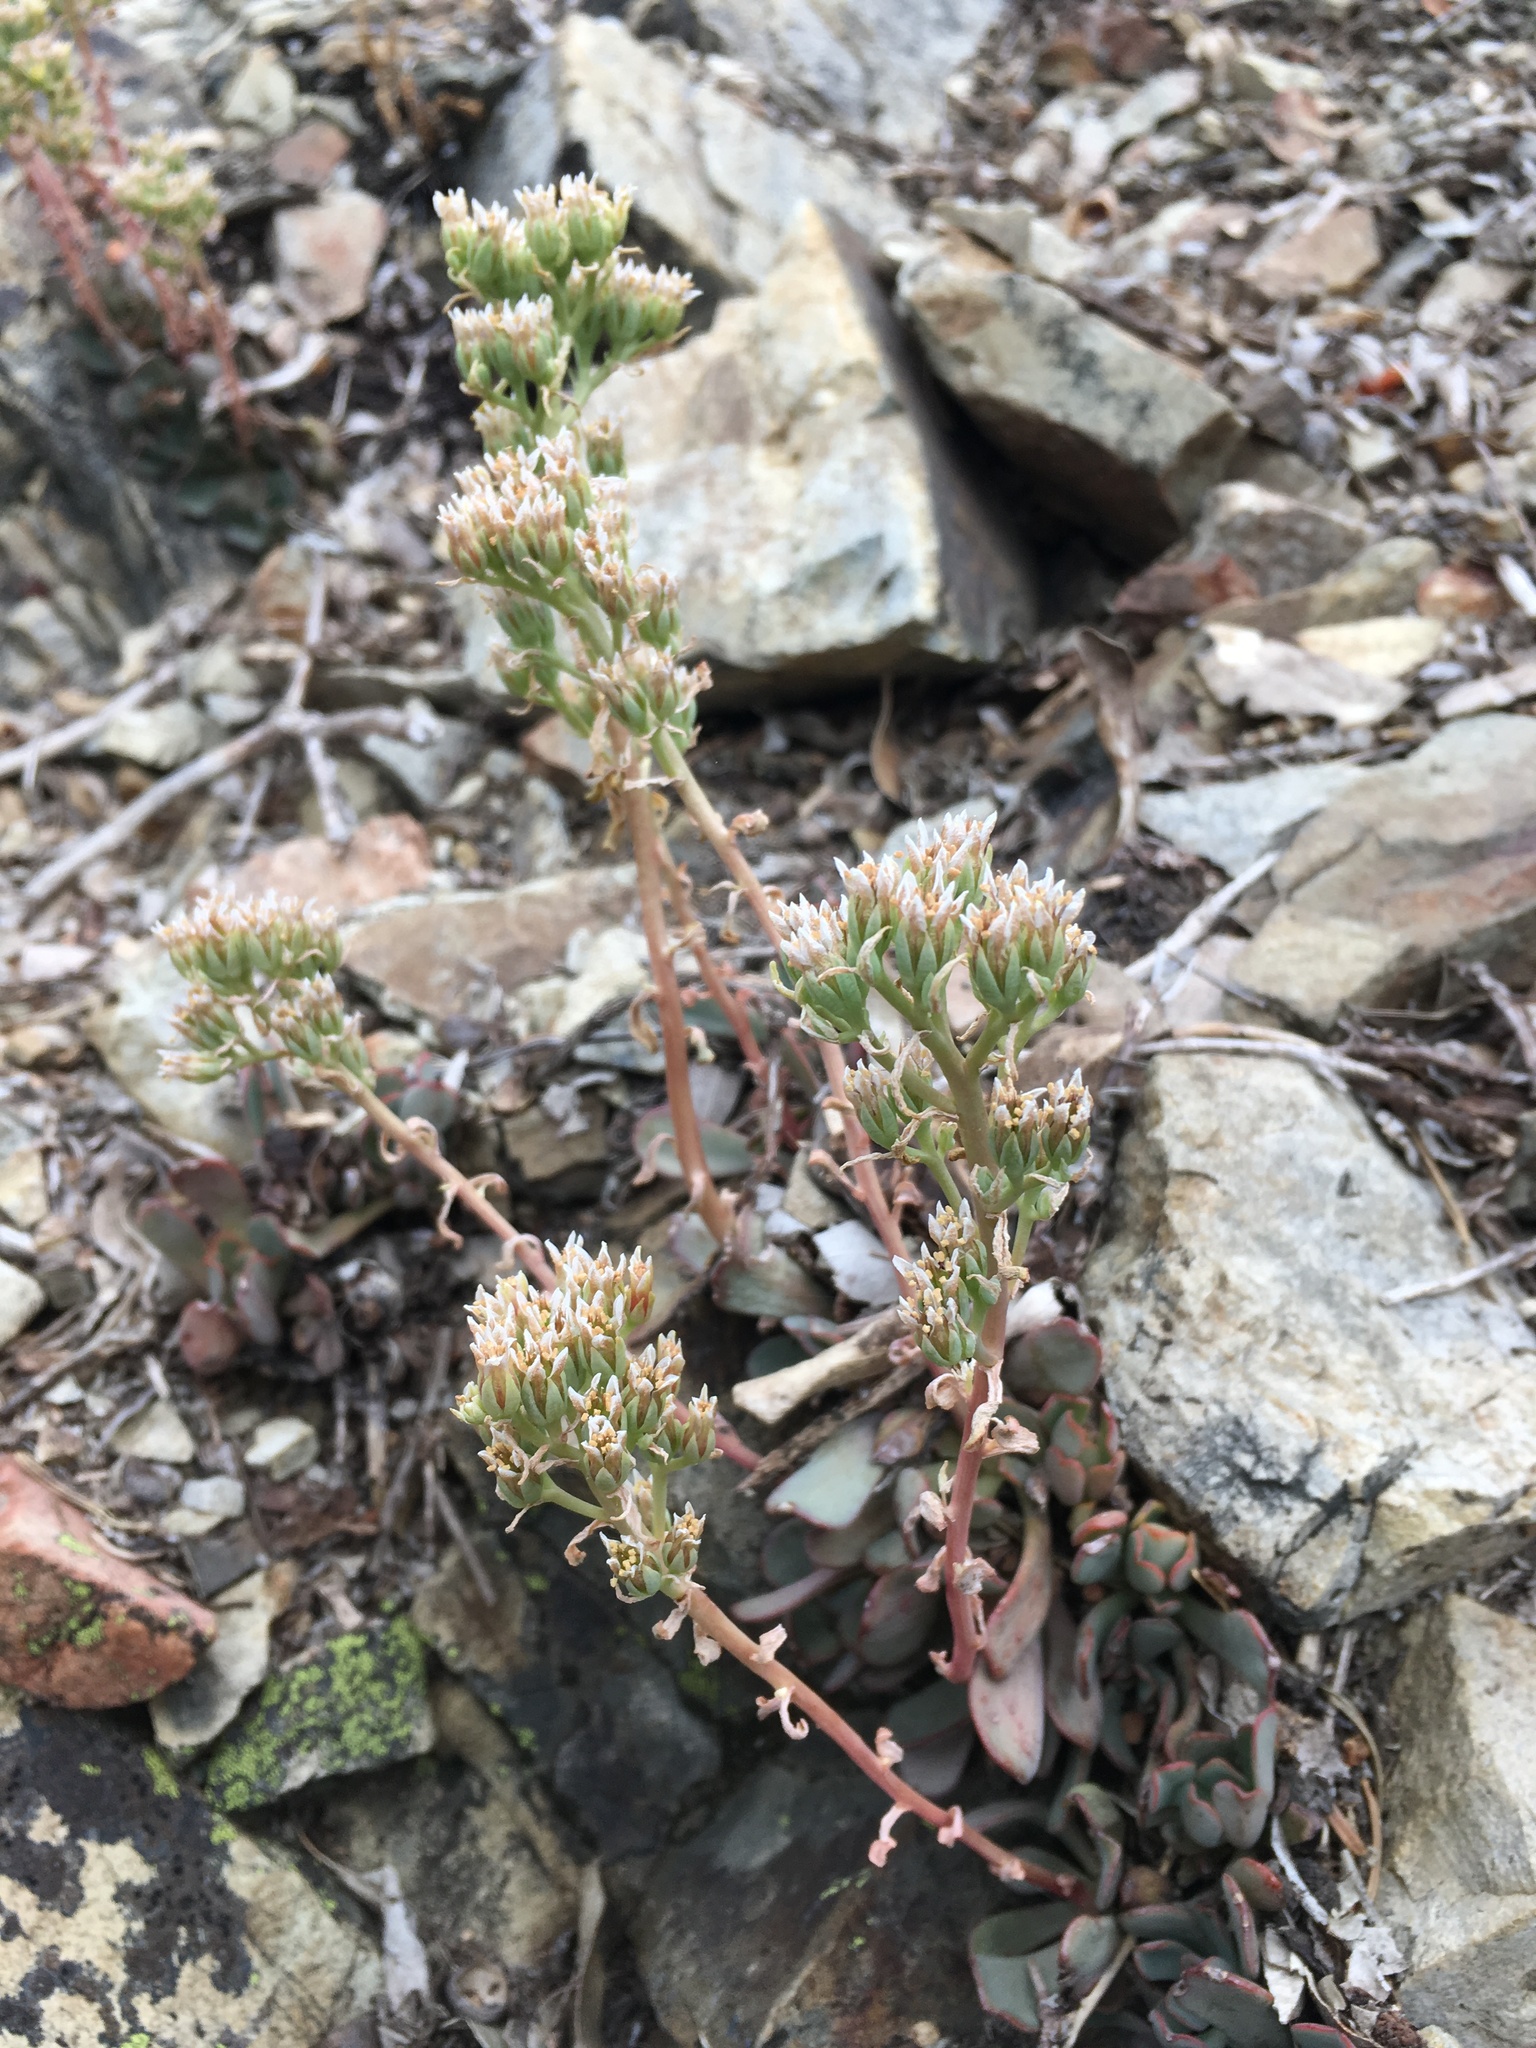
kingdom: Plantae
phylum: Tracheophyta
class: Magnoliopsida
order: Saxifragales
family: Crassulaceae
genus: Sedum
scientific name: Sedum paradisum
